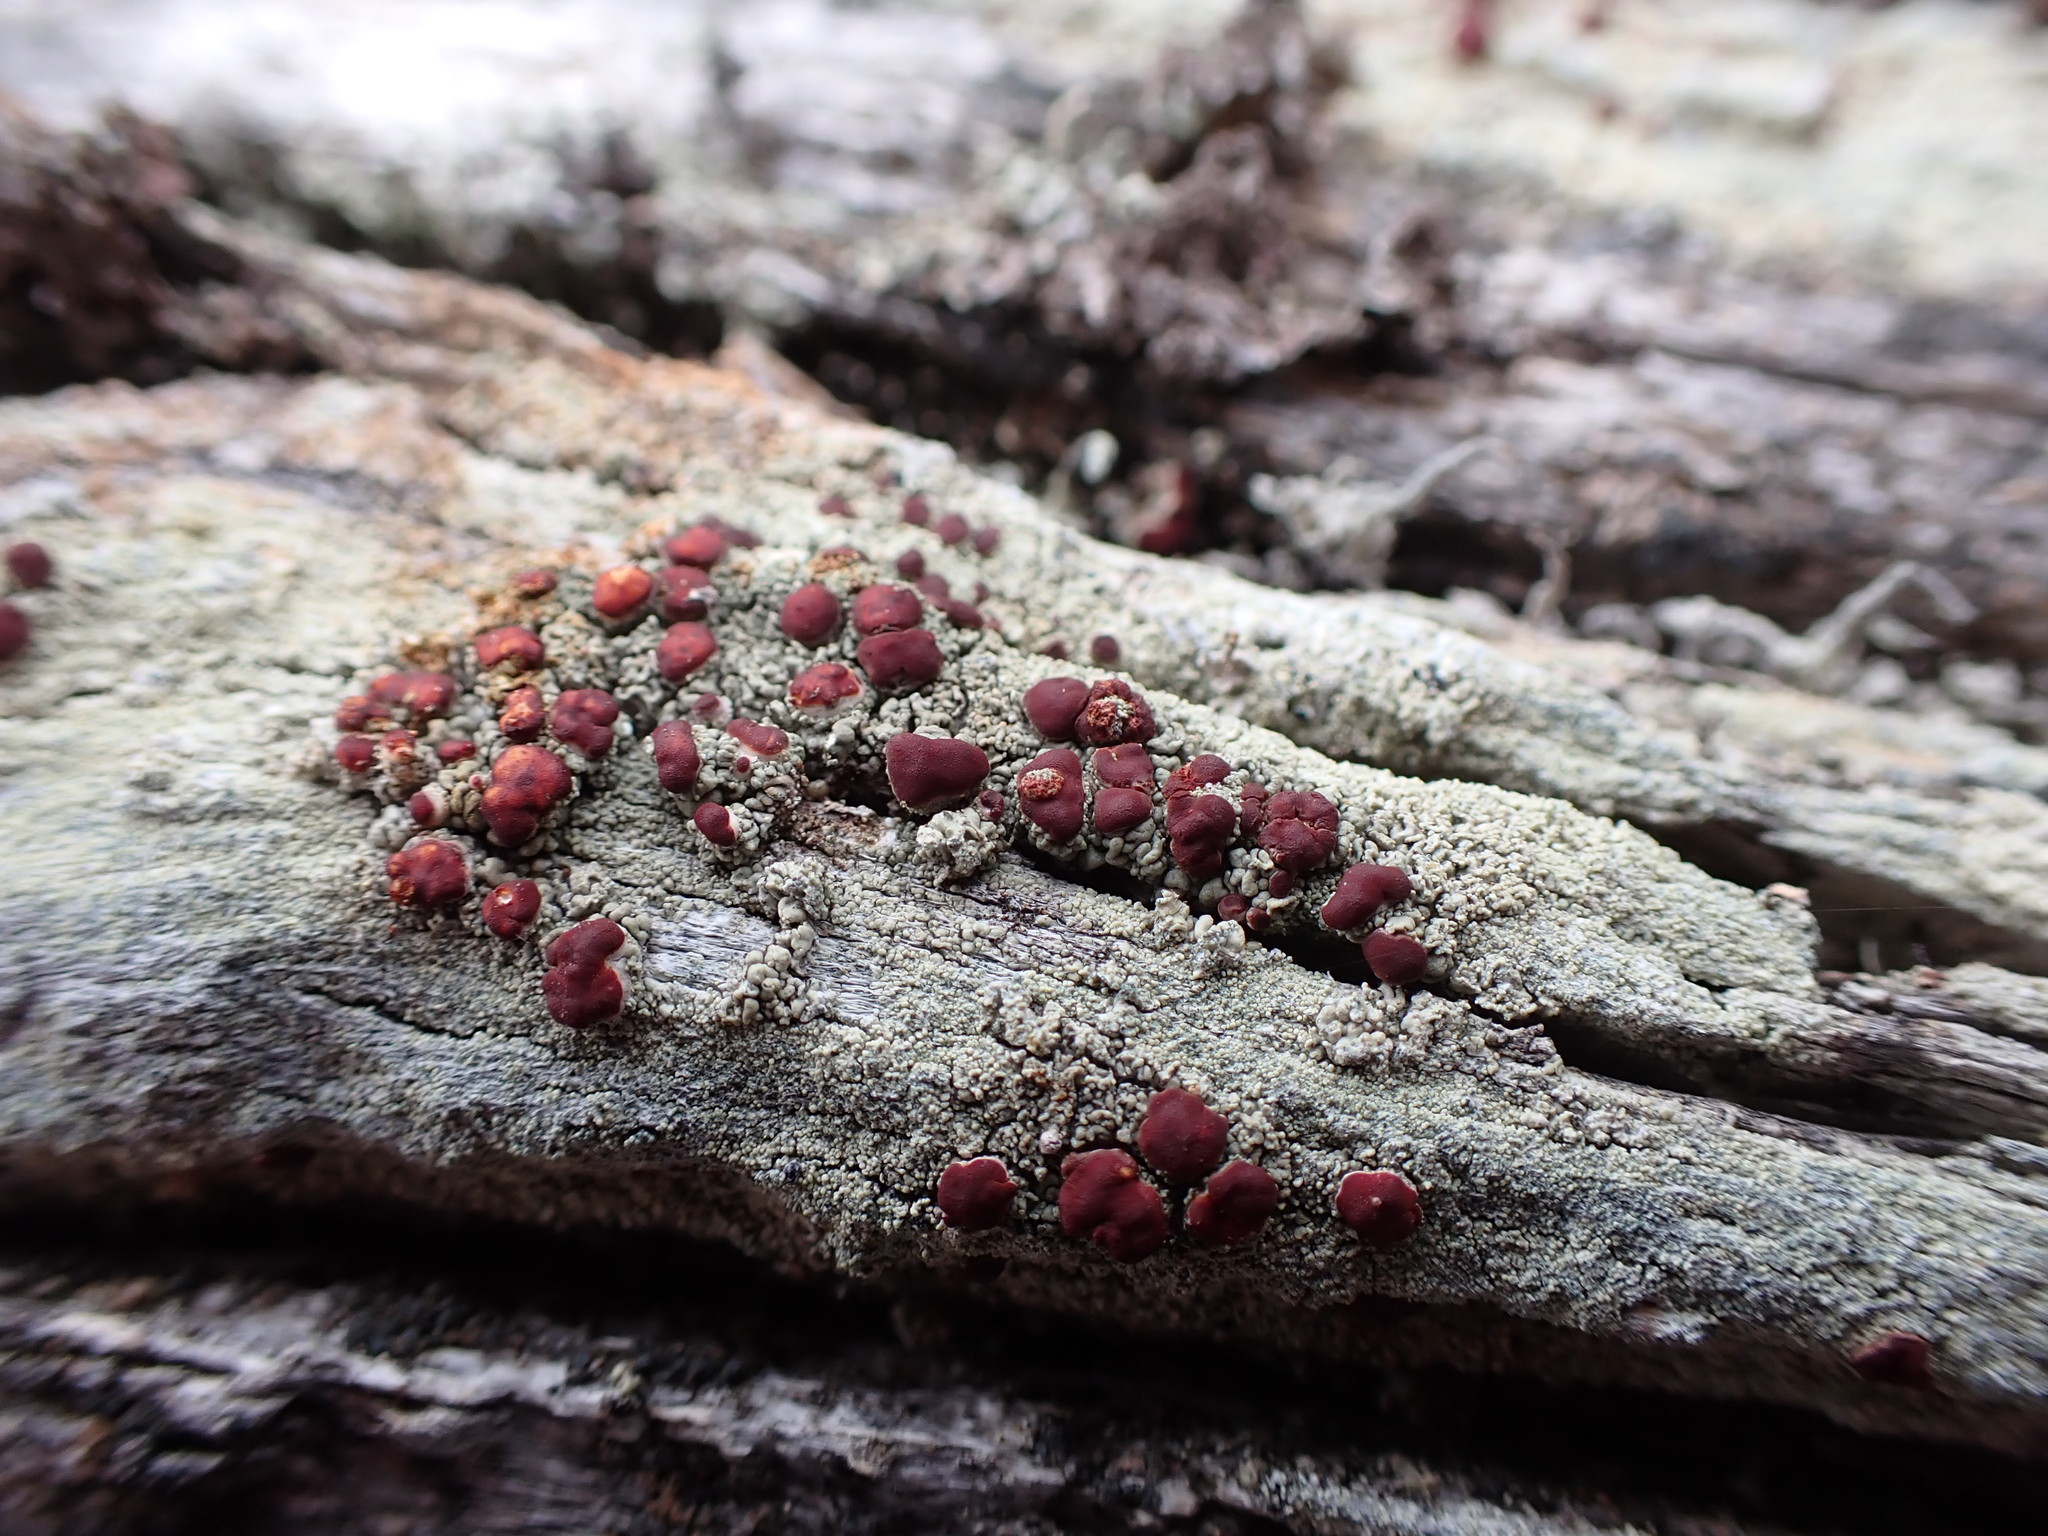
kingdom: Fungi
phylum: Ascomycota
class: Lecanoromycetes
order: Lecanorales
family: Ramalinaceae
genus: Bilimbia
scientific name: Bilimbia rubricosa
